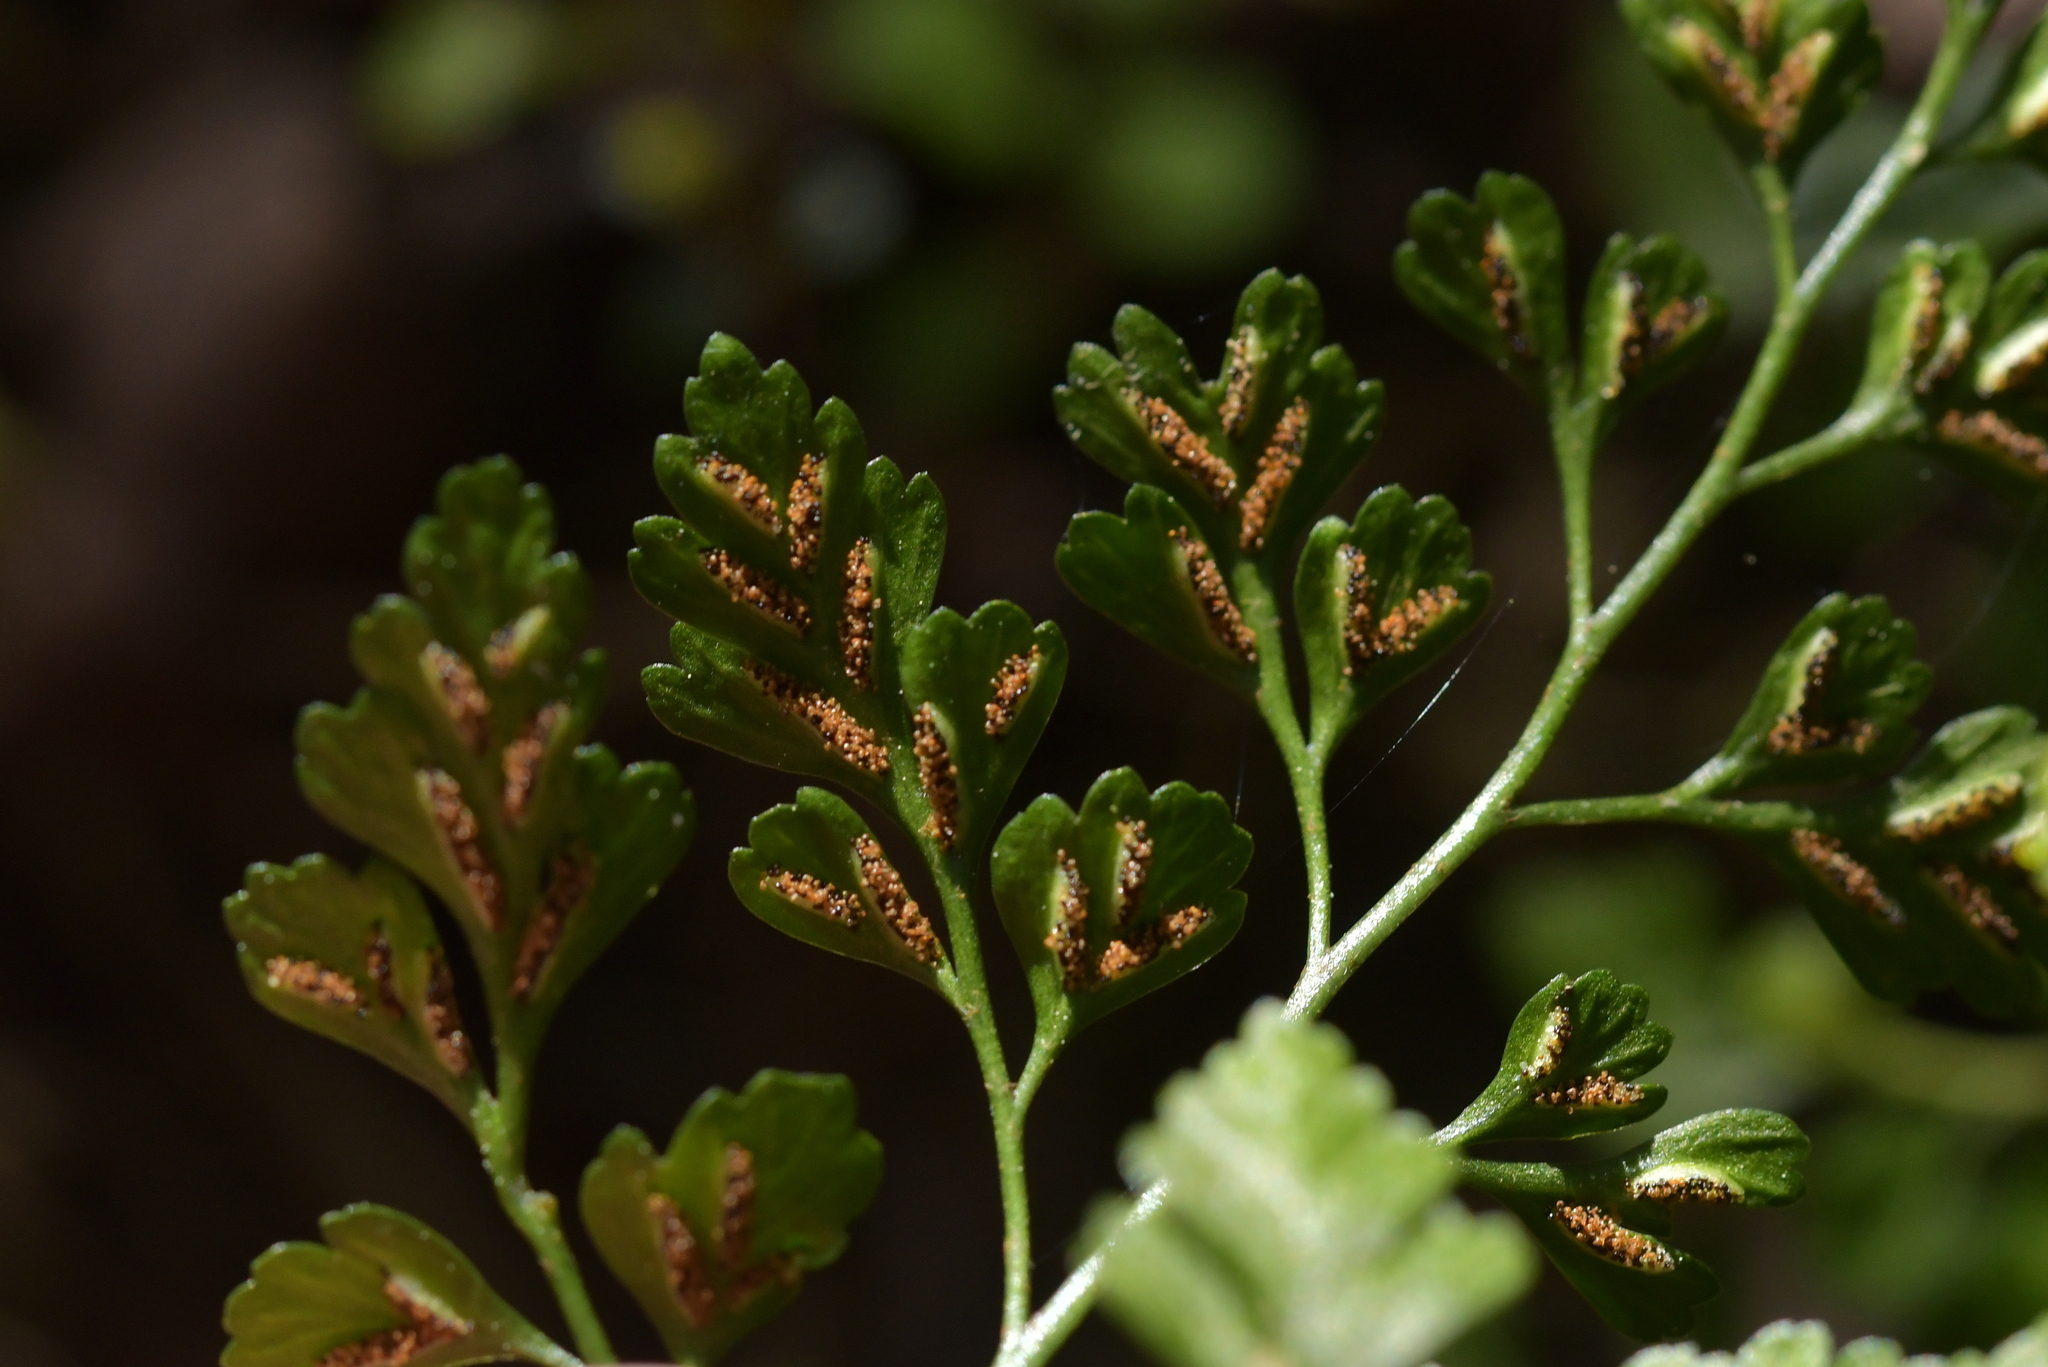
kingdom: Plantae
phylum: Tracheophyta
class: Polypodiopsida
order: Polypodiales
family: Aspleniaceae
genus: Asplenium
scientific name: Asplenium hookerianum
